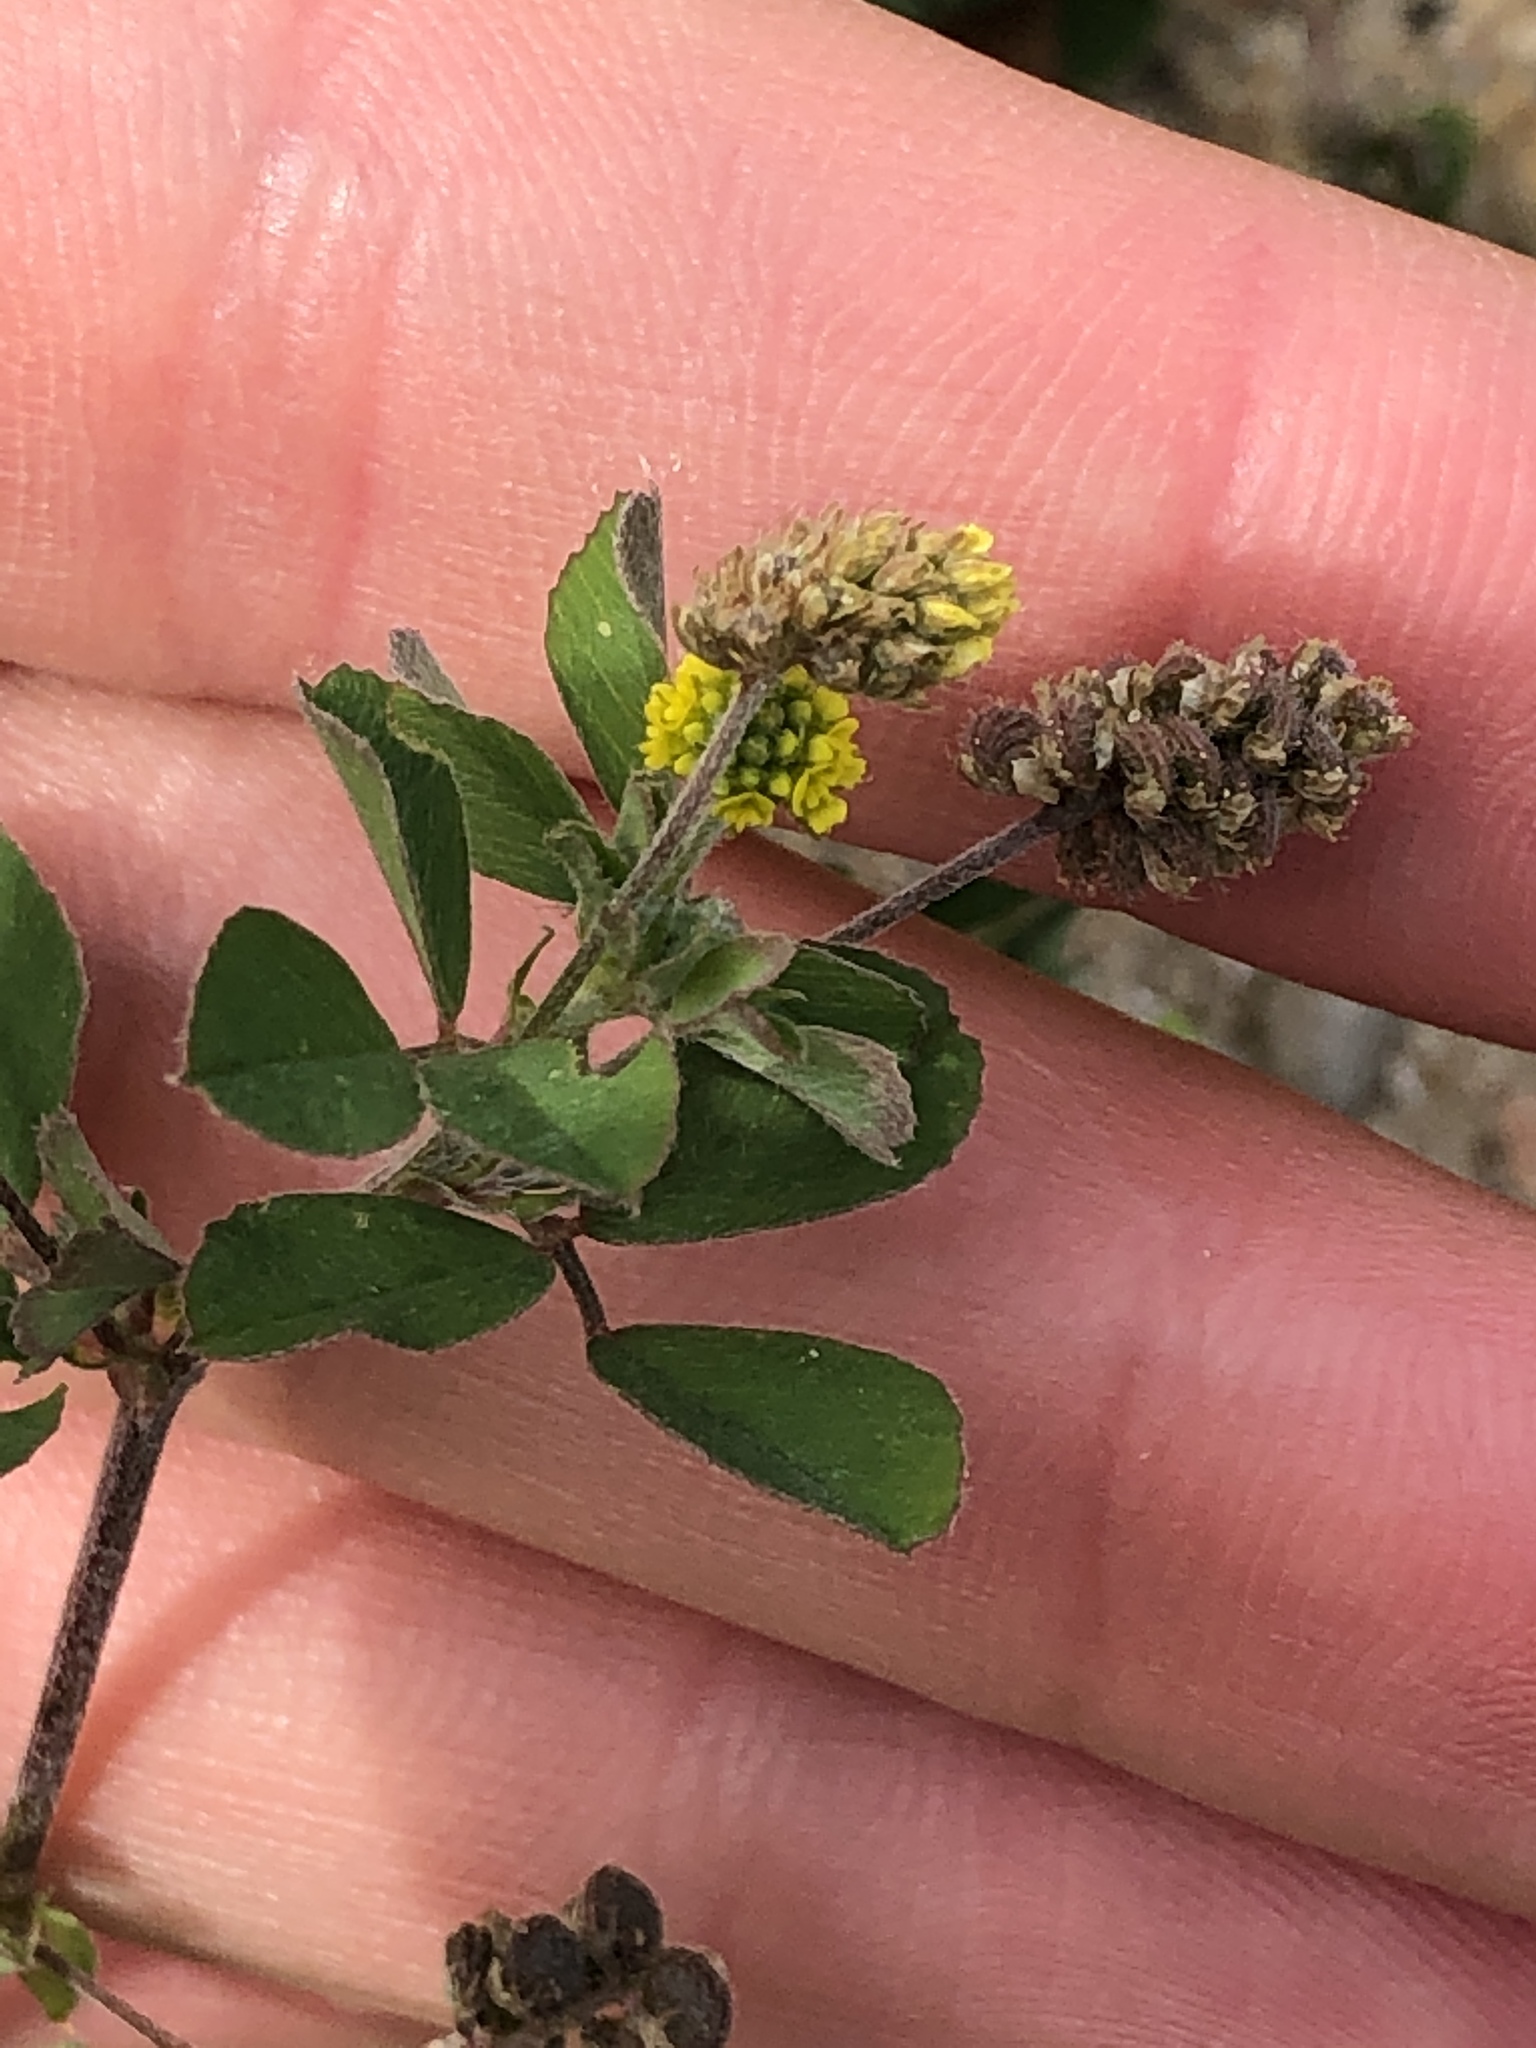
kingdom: Plantae
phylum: Tracheophyta
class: Magnoliopsida
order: Fabales
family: Fabaceae
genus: Medicago
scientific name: Medicago lupulina
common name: Black medick
